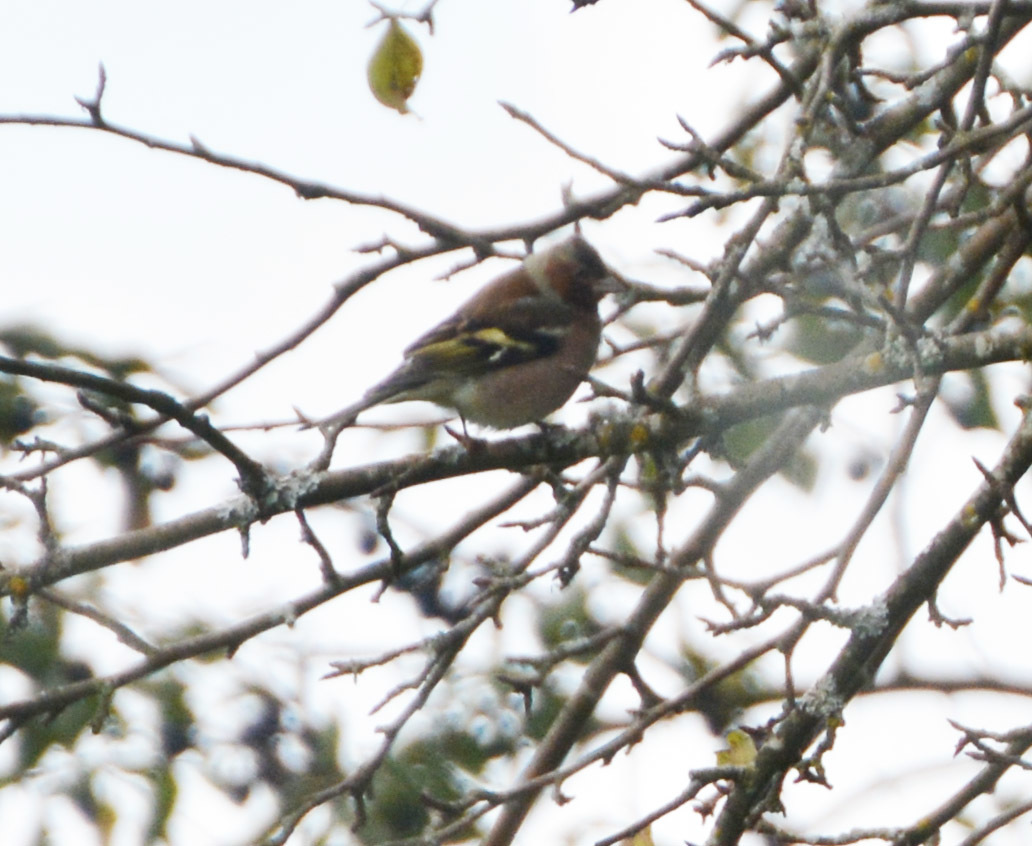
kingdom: Animalia
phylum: Chordata
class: Aves
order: Passeriformes
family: Fringillidae
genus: Fringilla
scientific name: Fringilla coelebs
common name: Common chaffinch
